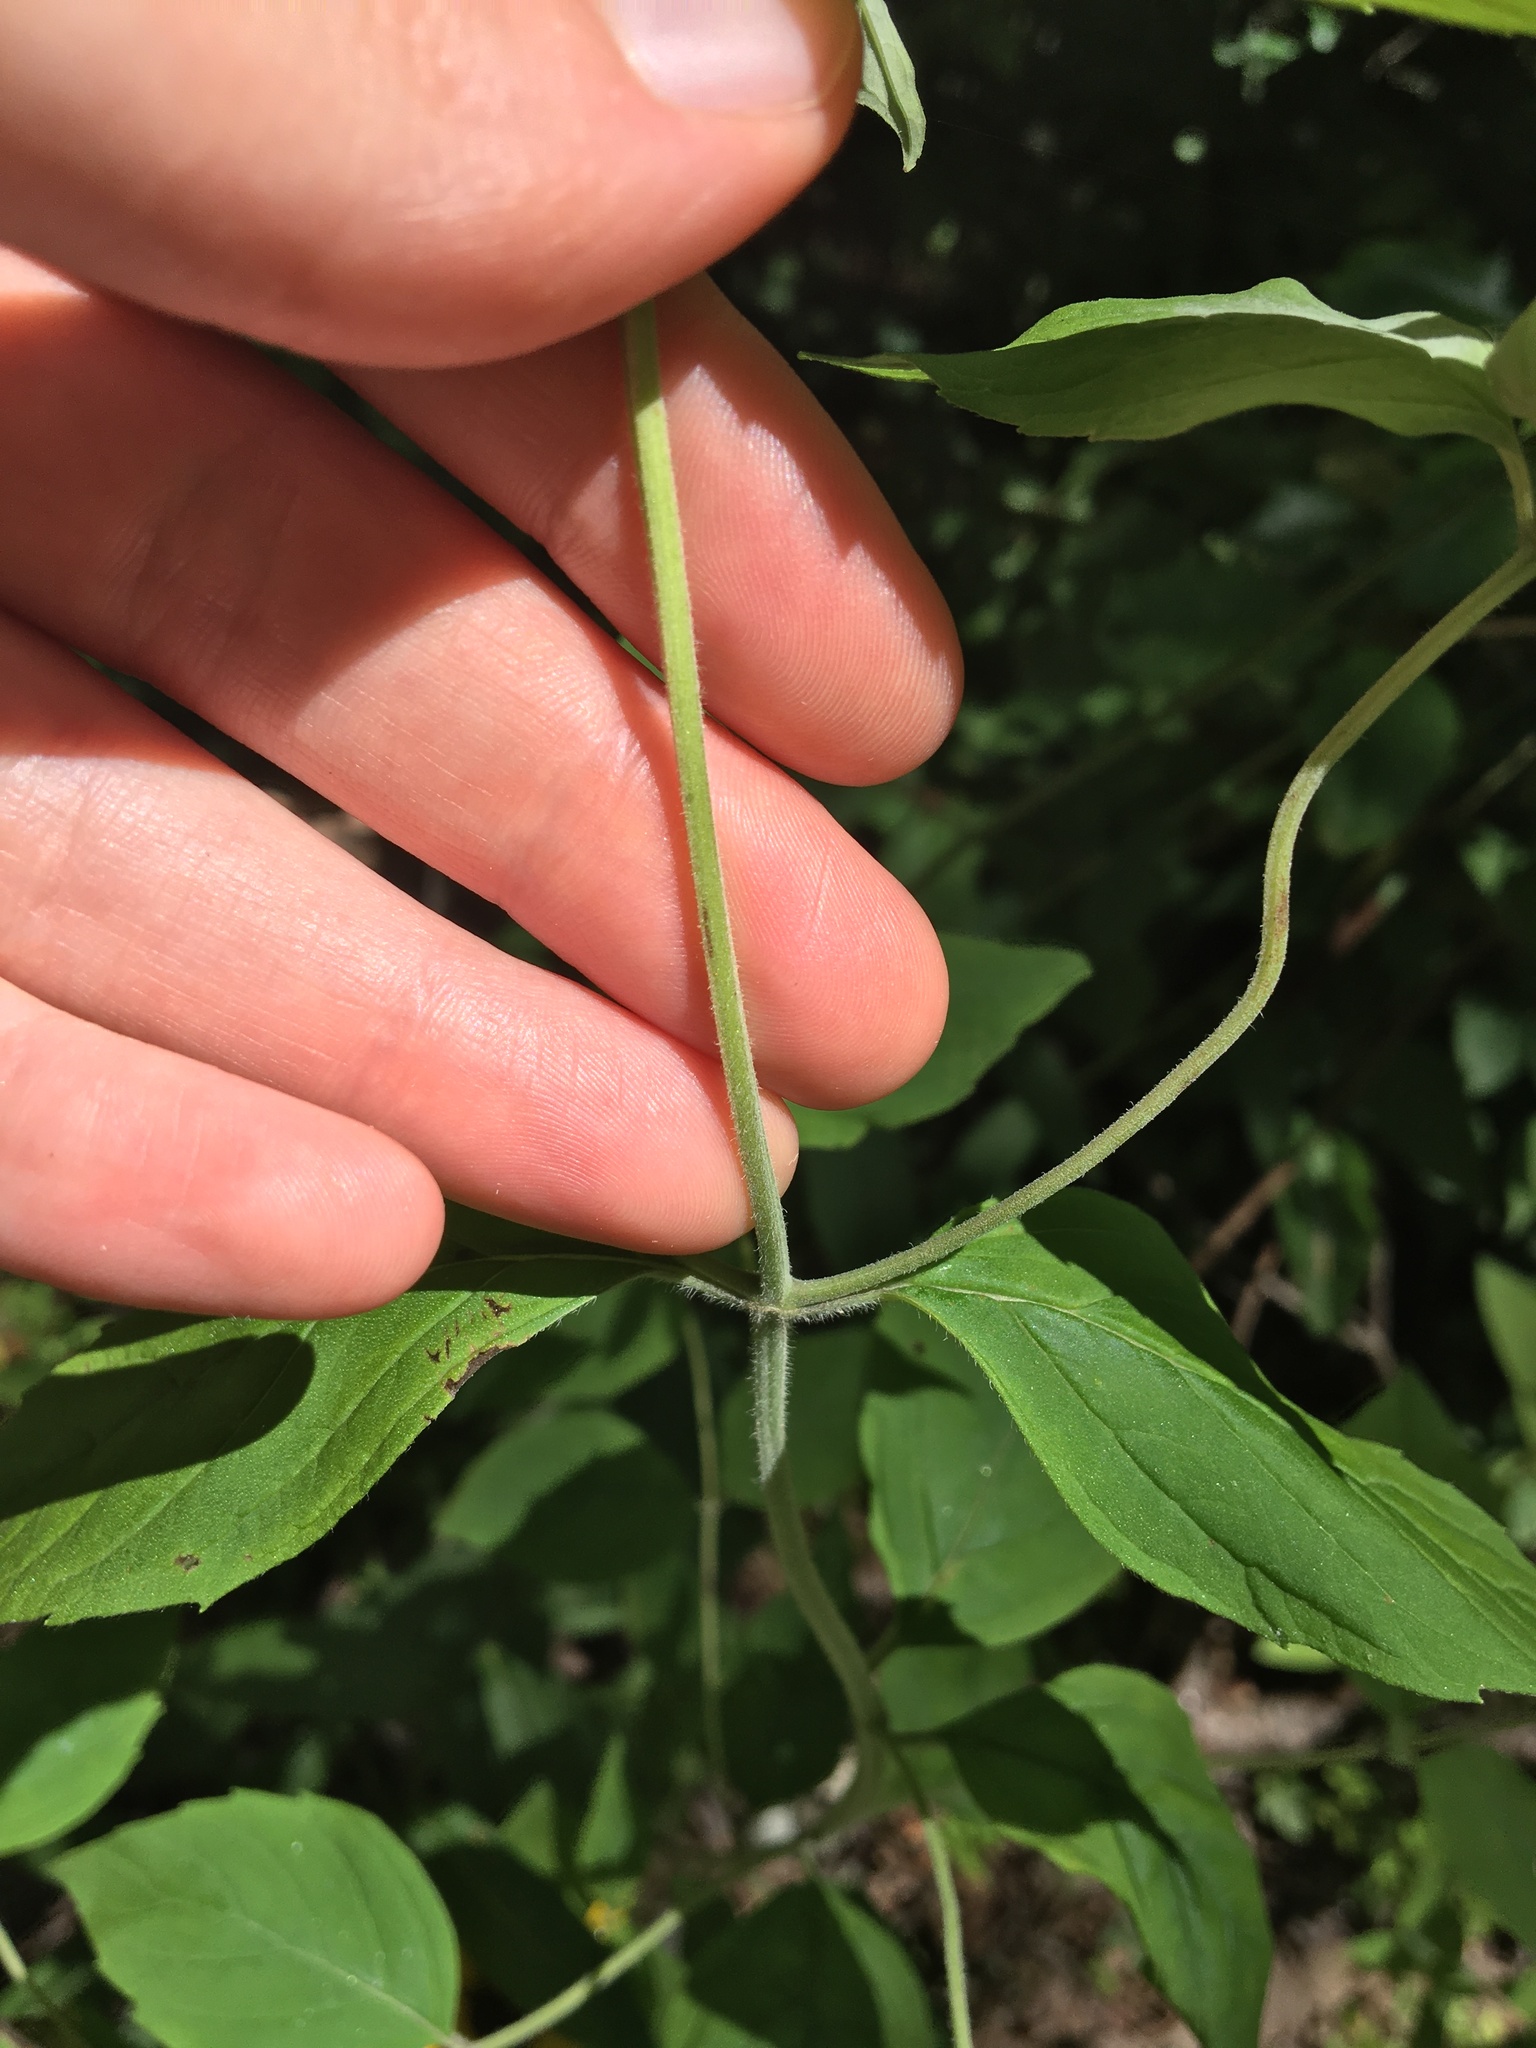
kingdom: Plantae
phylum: Tracheophyta
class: Magnoliopsida
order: Lamiales
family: Lamiaceae
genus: Pycnanthemum
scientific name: Pycnanthemum incanum
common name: Hoary mountain-mint
